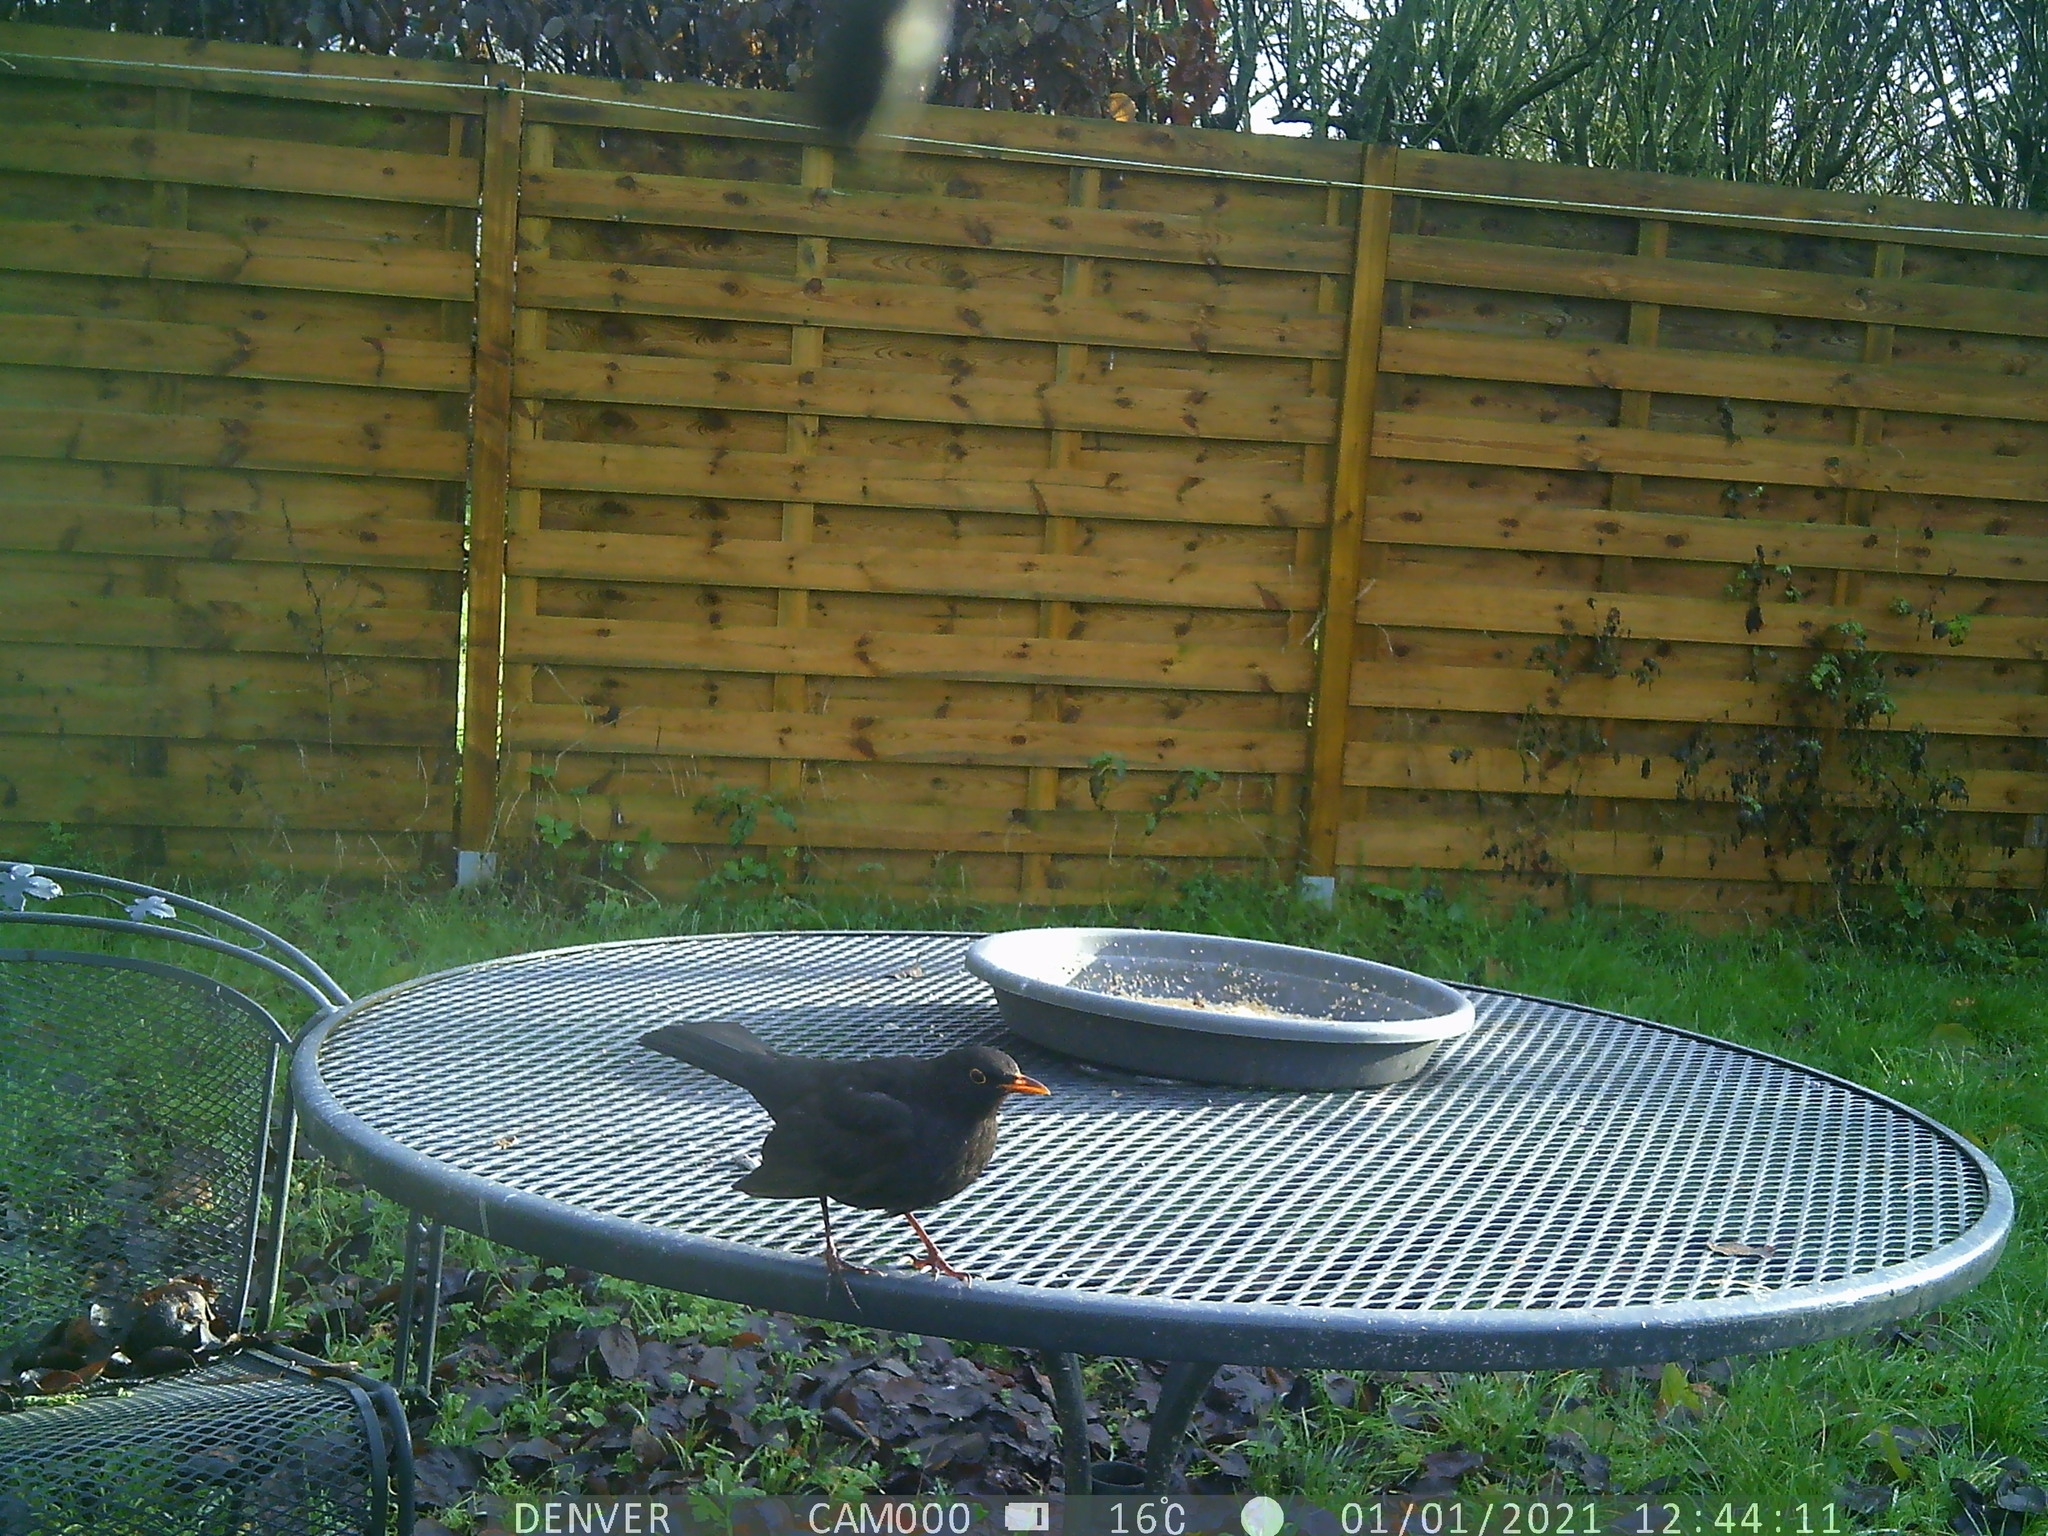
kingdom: Animalia
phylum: Chordata
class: Aves
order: Passeriformes
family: Turdidae
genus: Turdus
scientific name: Turdus merula
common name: Common blackbird
